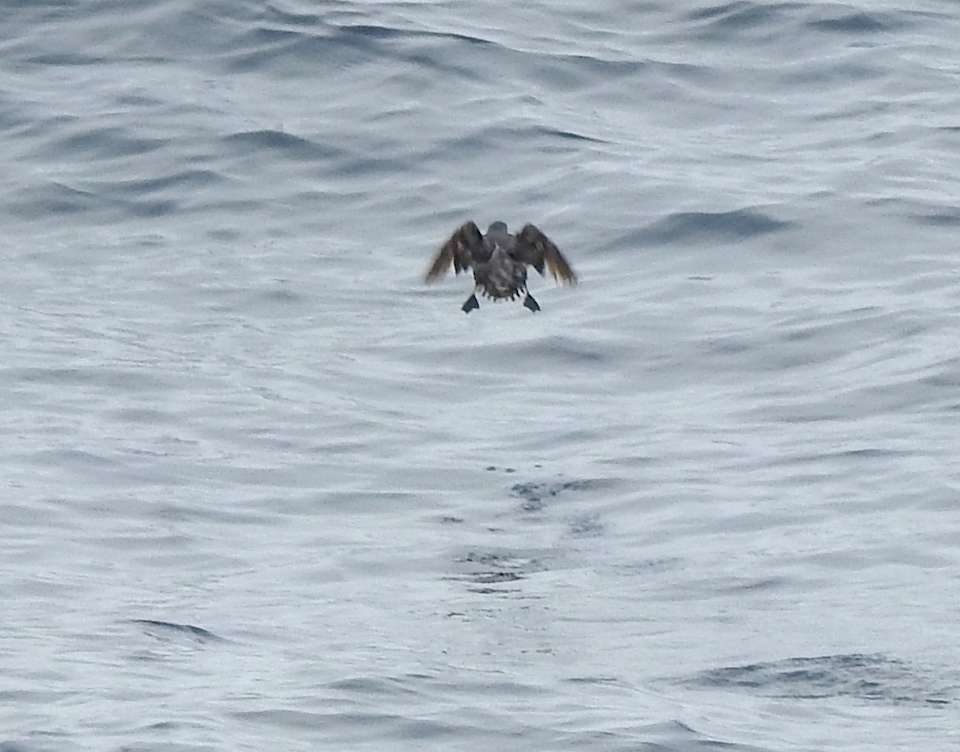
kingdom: Animalia
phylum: Chordata
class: Aves
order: Charadriiformes
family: Alcidae
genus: Ptychoramphus
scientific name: Ptychoramphus aleuticus
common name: Cassin's auklet
